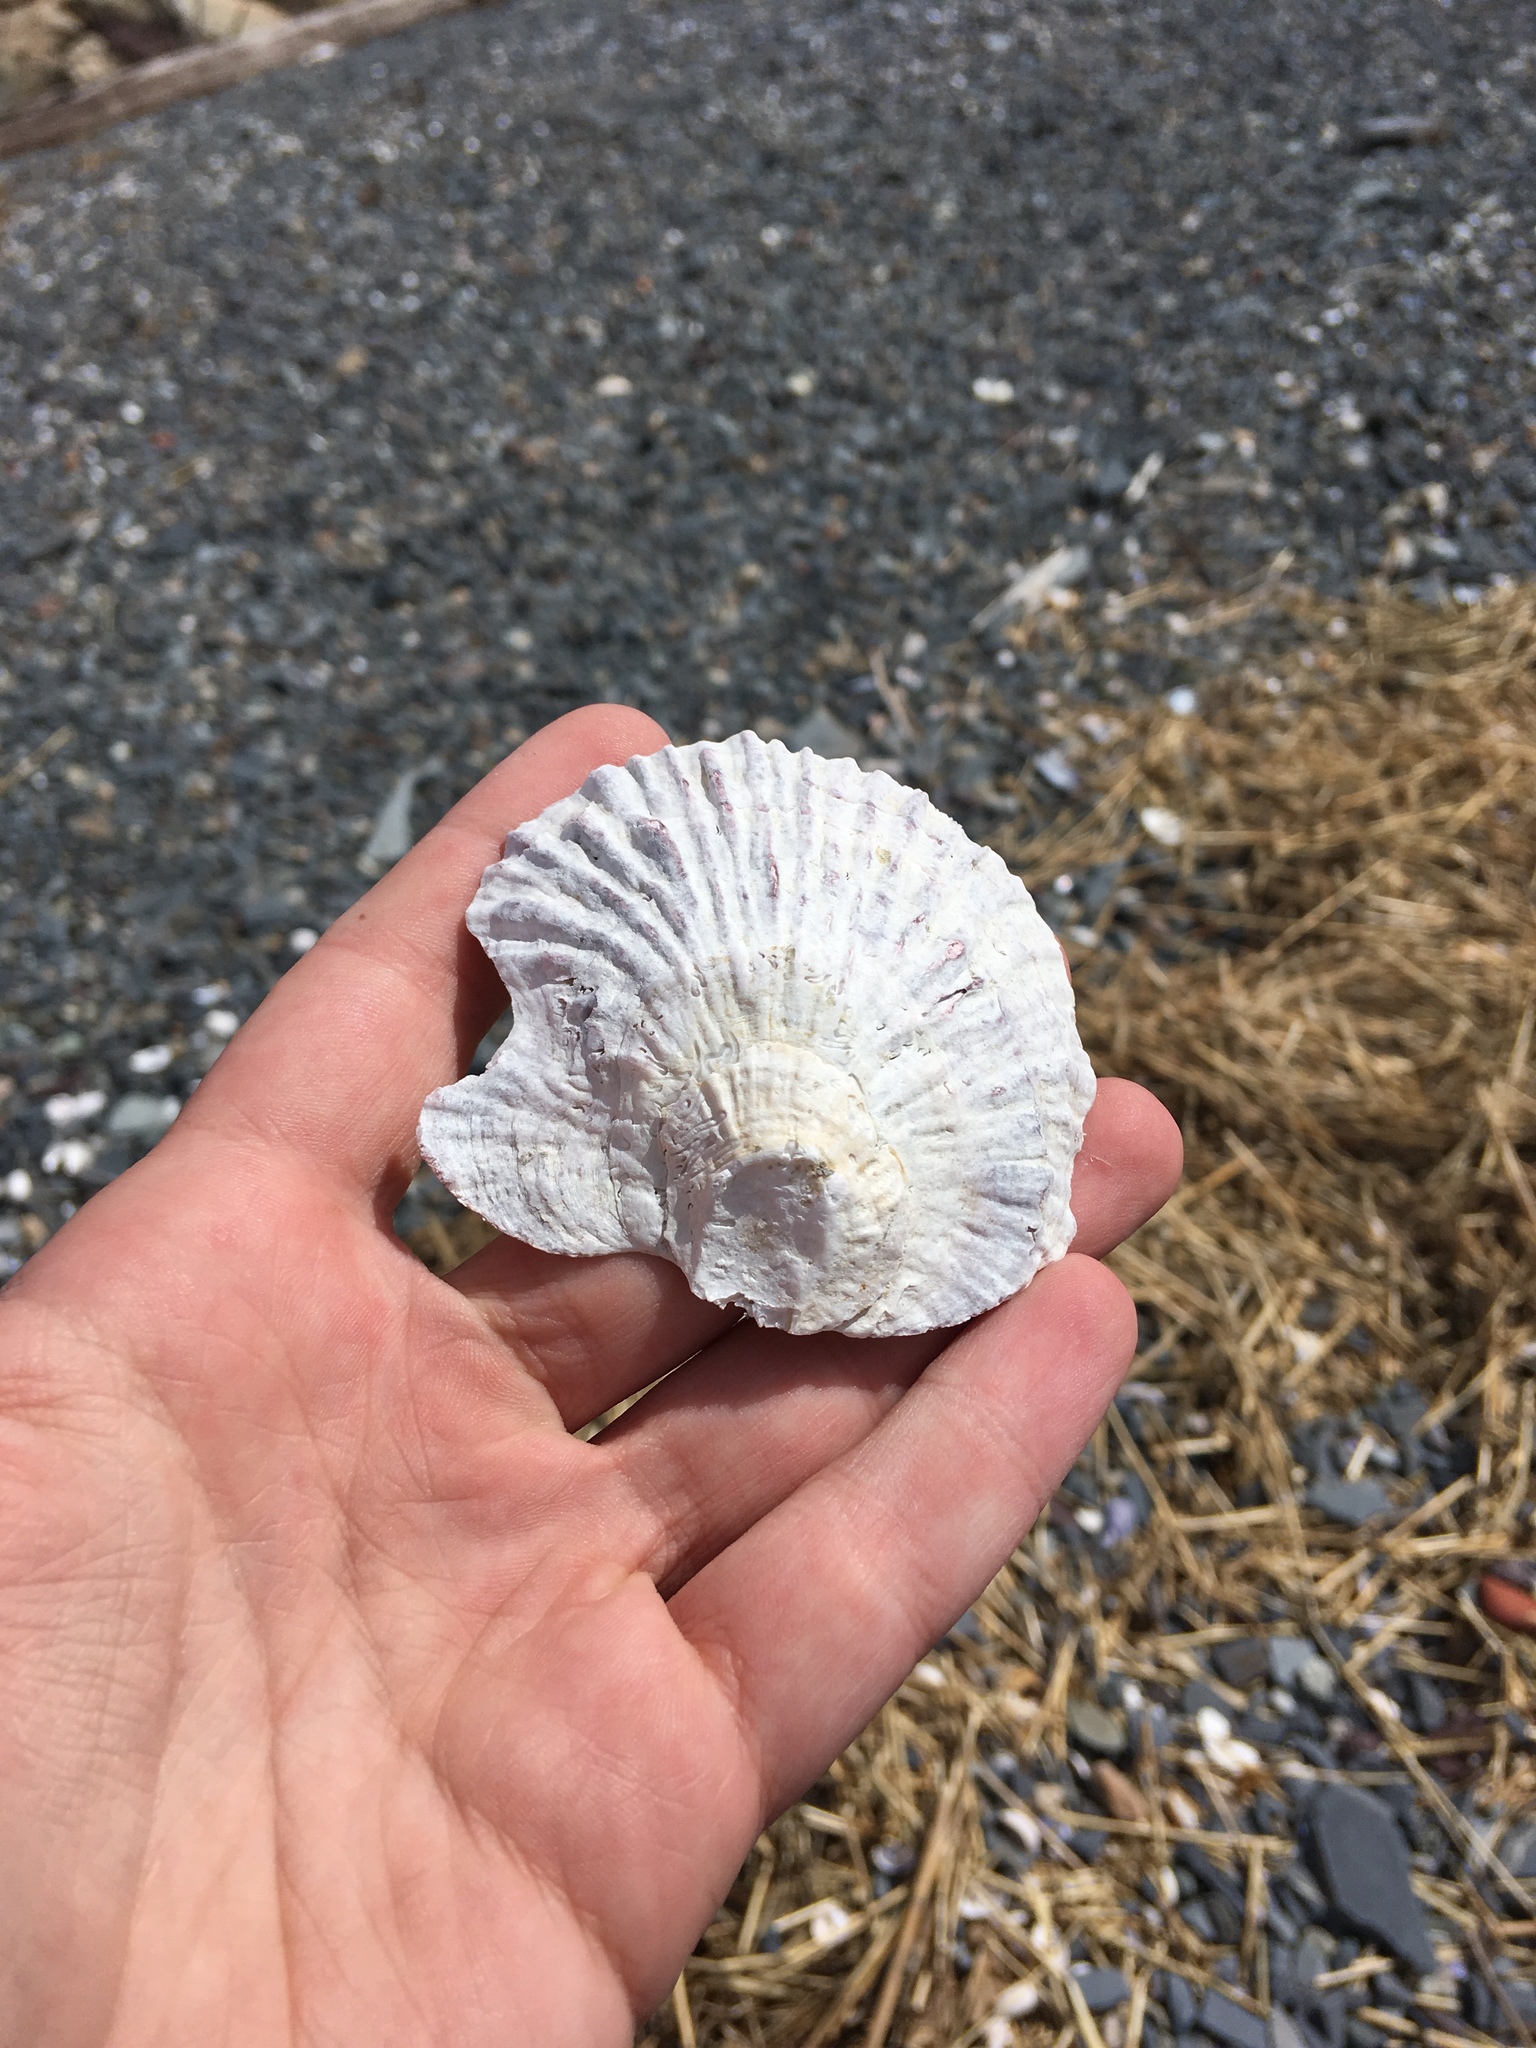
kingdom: Animalia
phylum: Mollusca
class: Bivalvia
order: Ostreida
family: Ostreidae
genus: Ostrea
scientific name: Ostrea edulis
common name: Flat oyster
